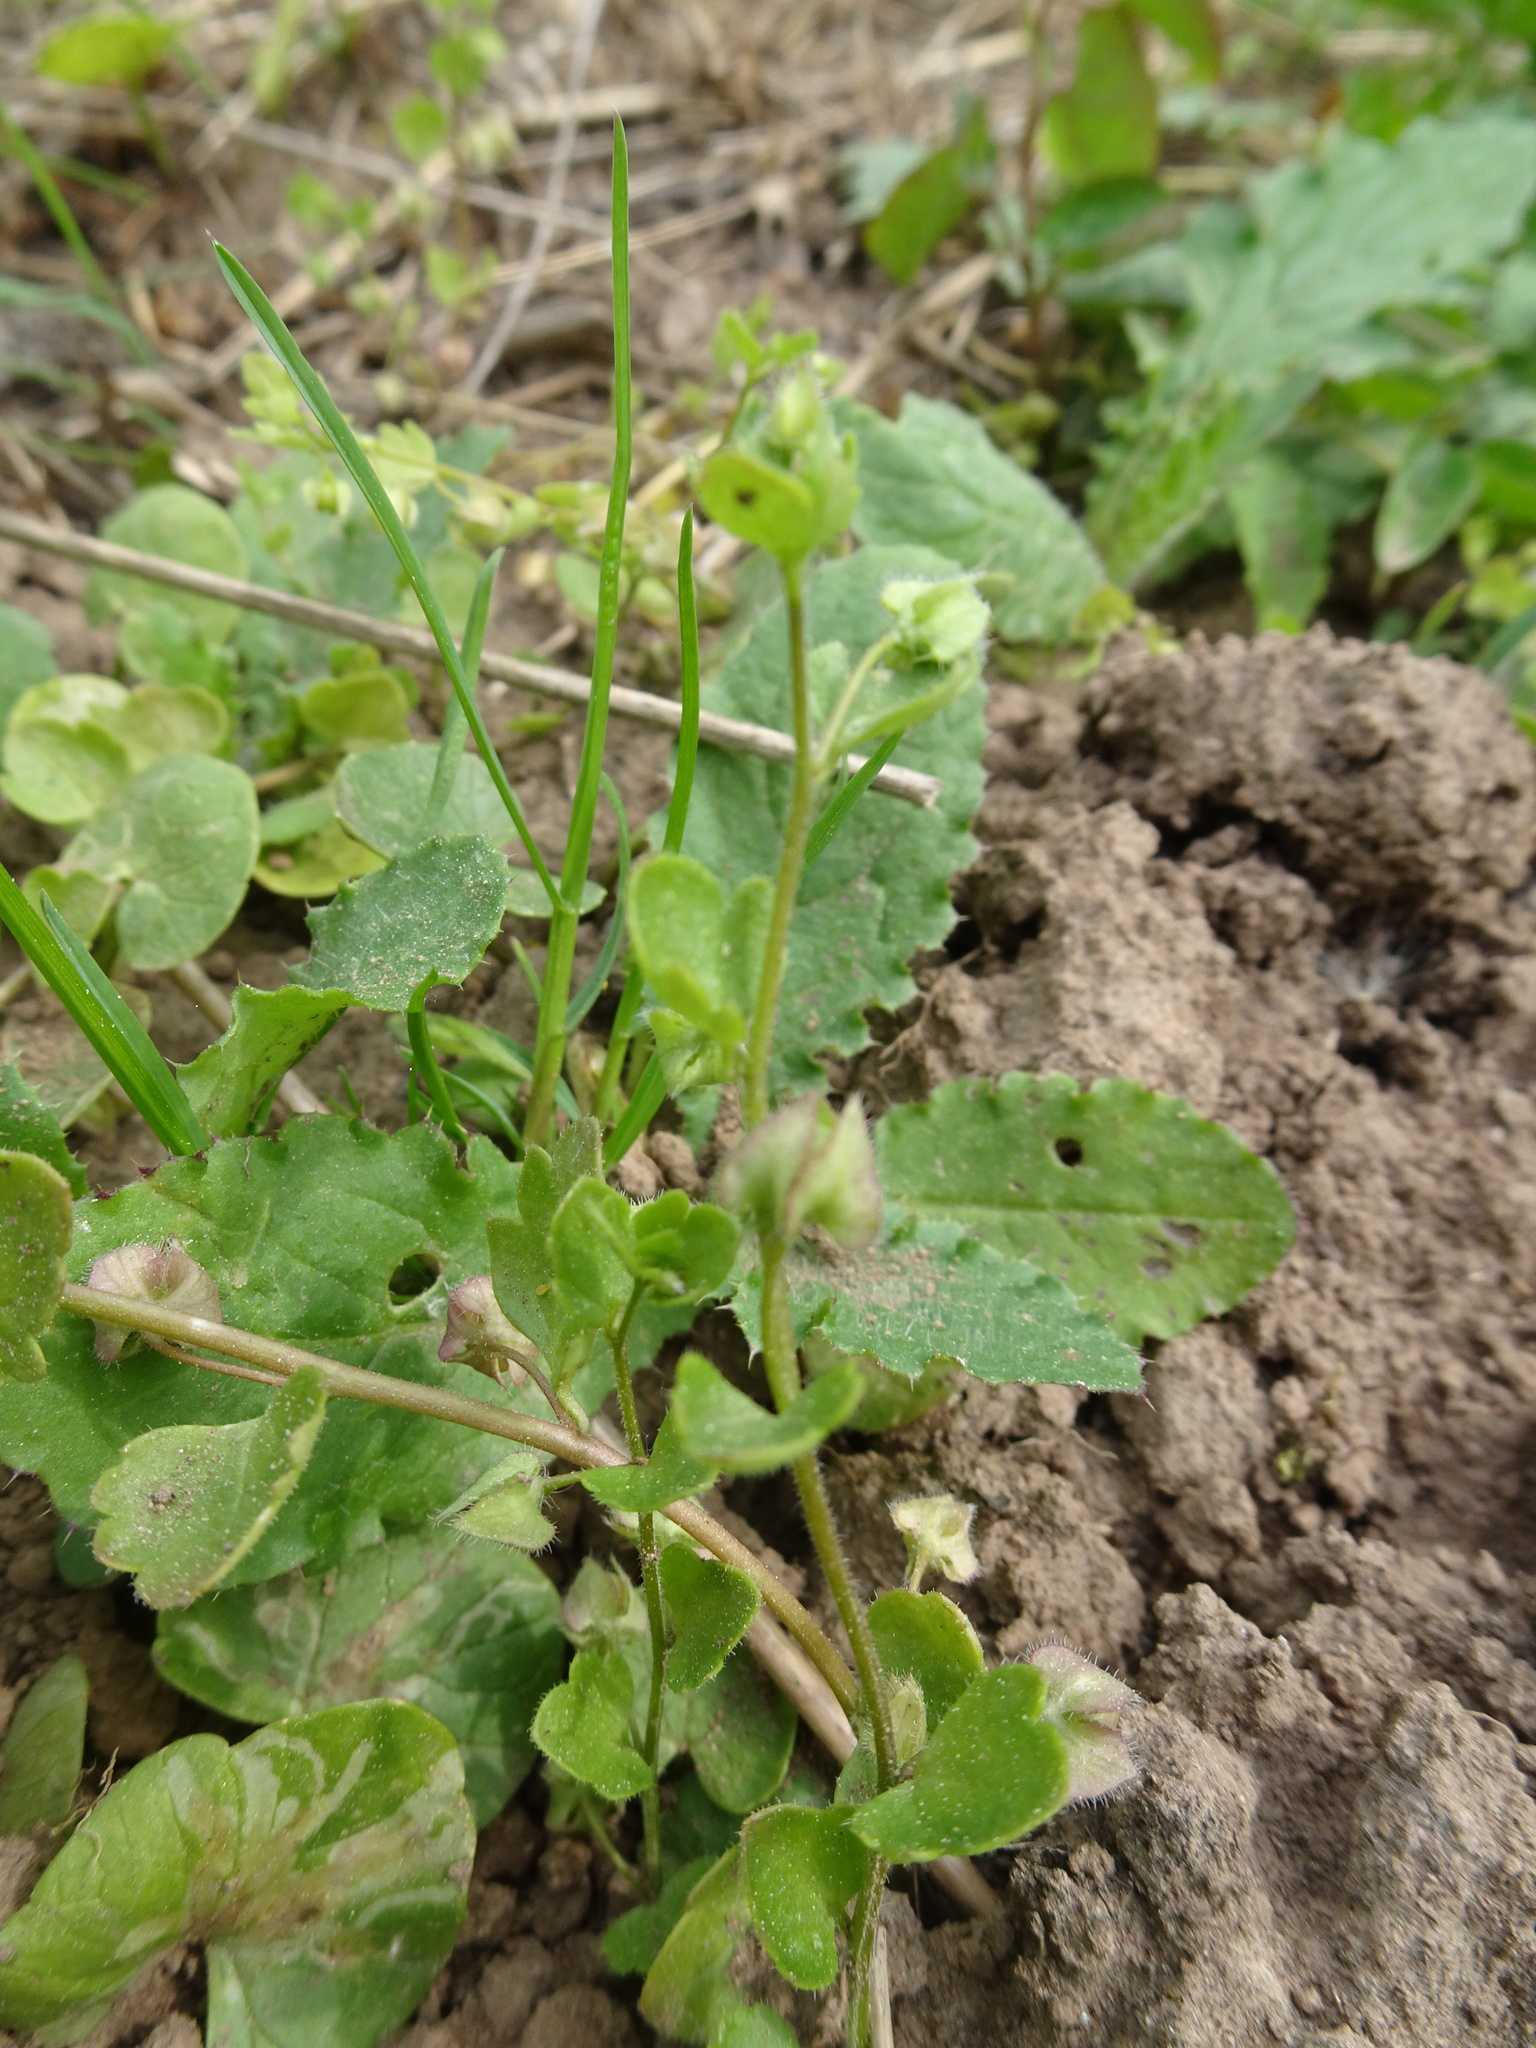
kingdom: Plantae
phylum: Tracheophyta
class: Magnoliopsida
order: Lamiales
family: Plantaginaceae
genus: Veronica
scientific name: Veronica hederifolia
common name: Ivy-leaved speedwell
